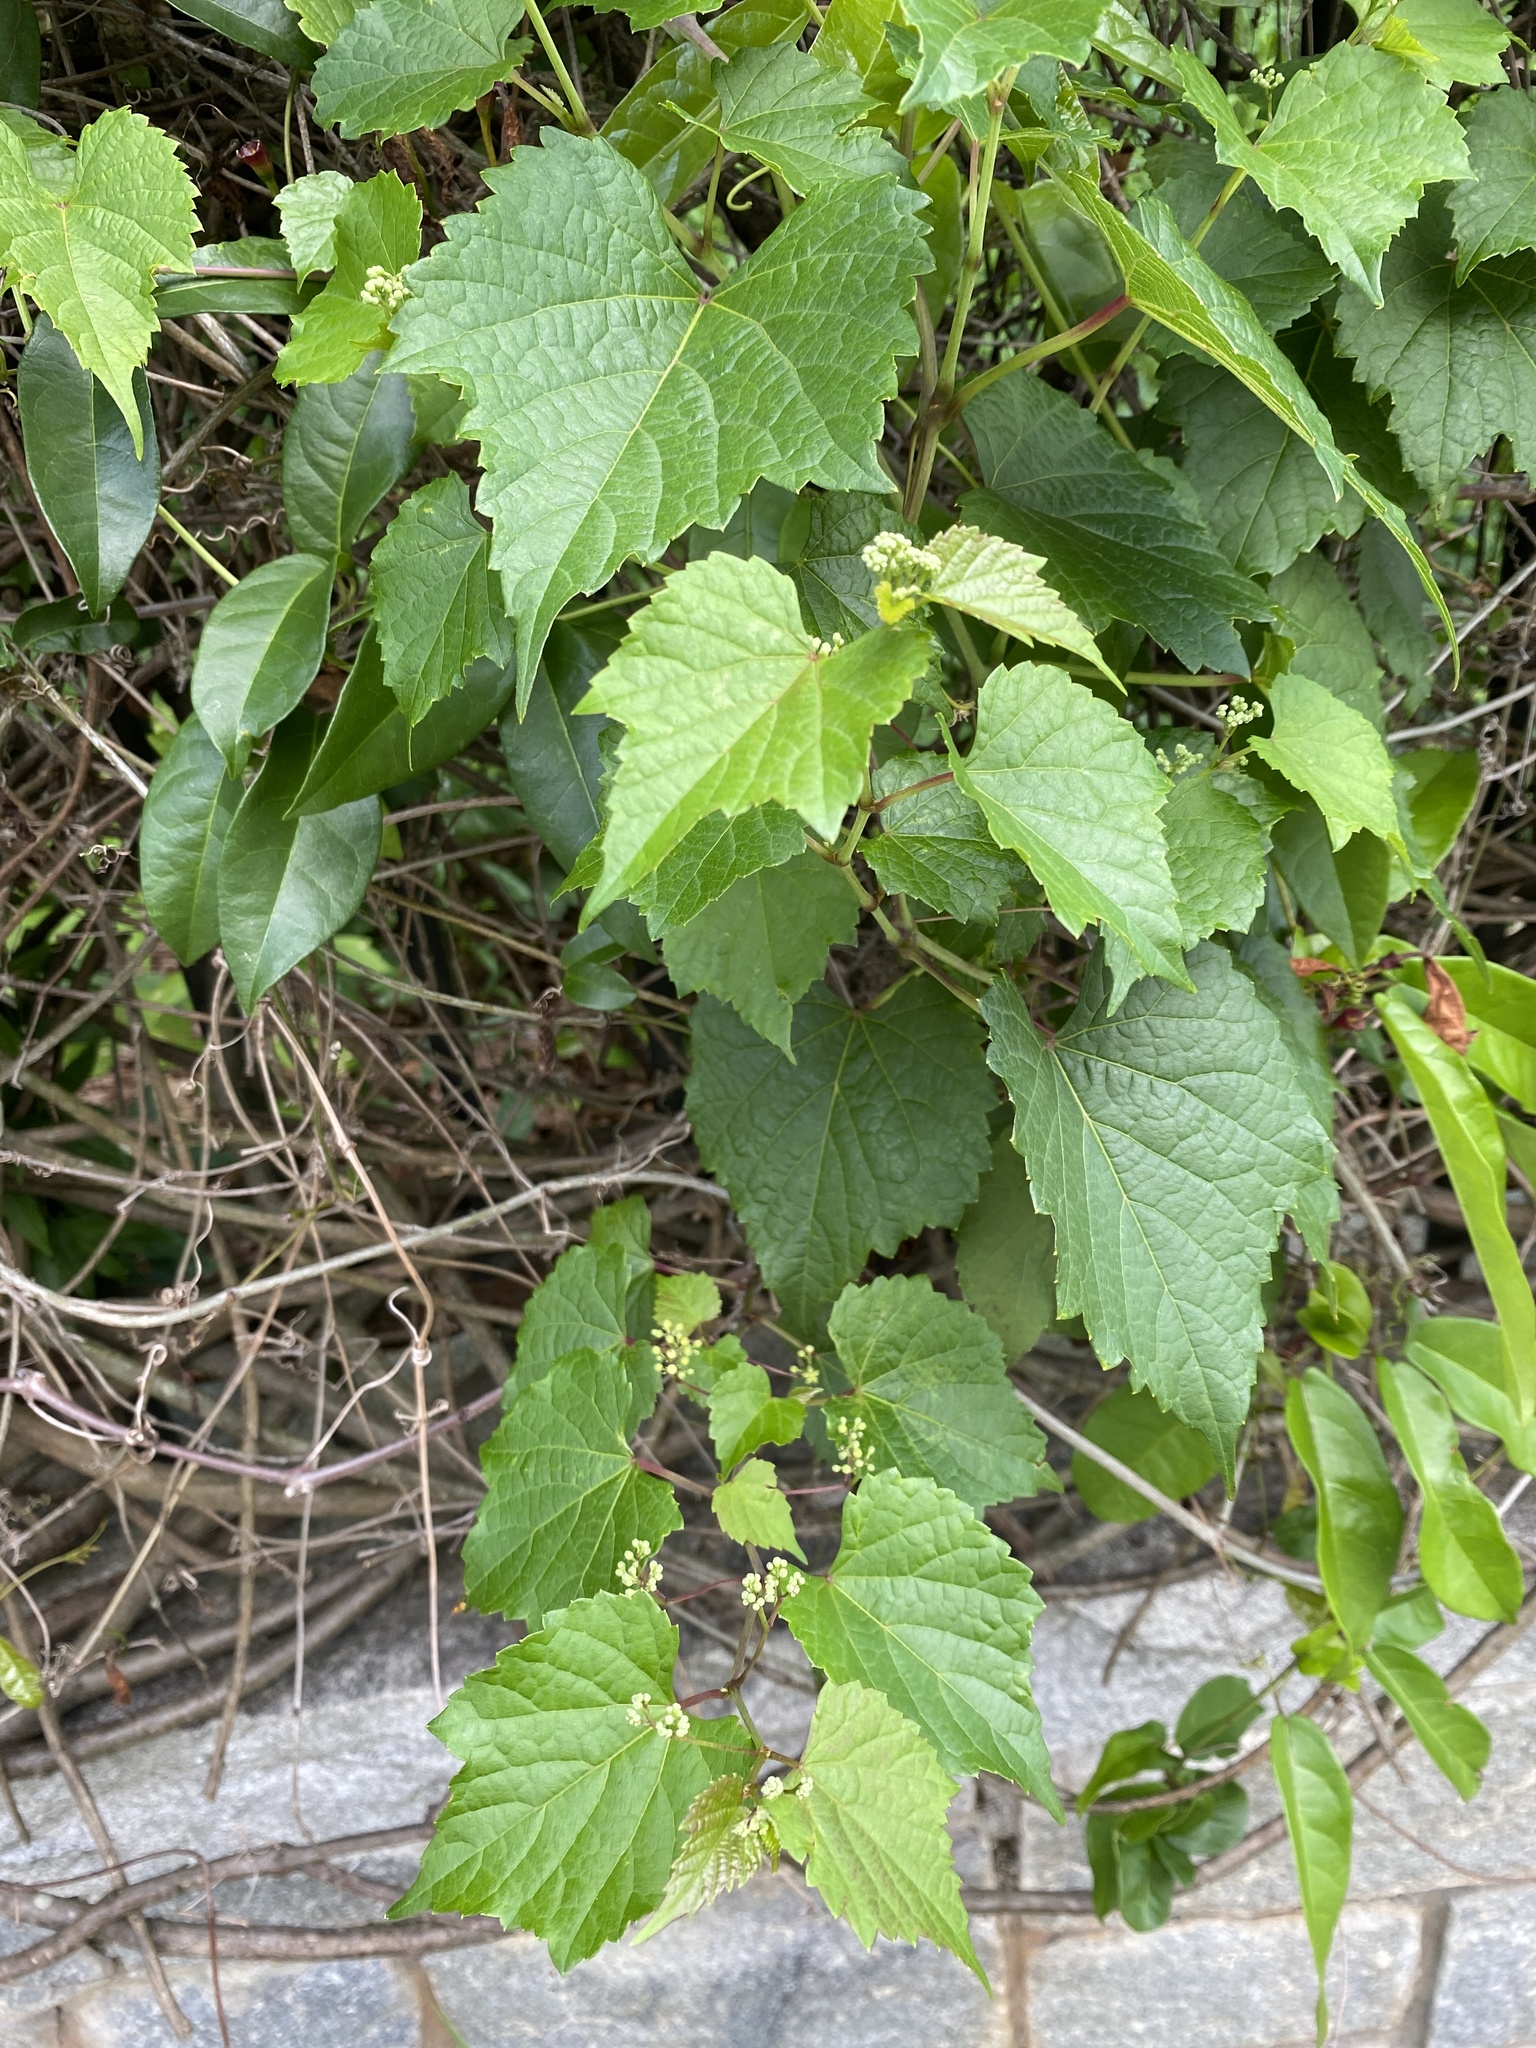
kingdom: Plantae
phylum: Tracheophyta
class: Magnoliopsida
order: Vitales
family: Vitaceae
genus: Ampelopsis
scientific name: Ampelopsis glandulosa
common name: Amur peppervine
